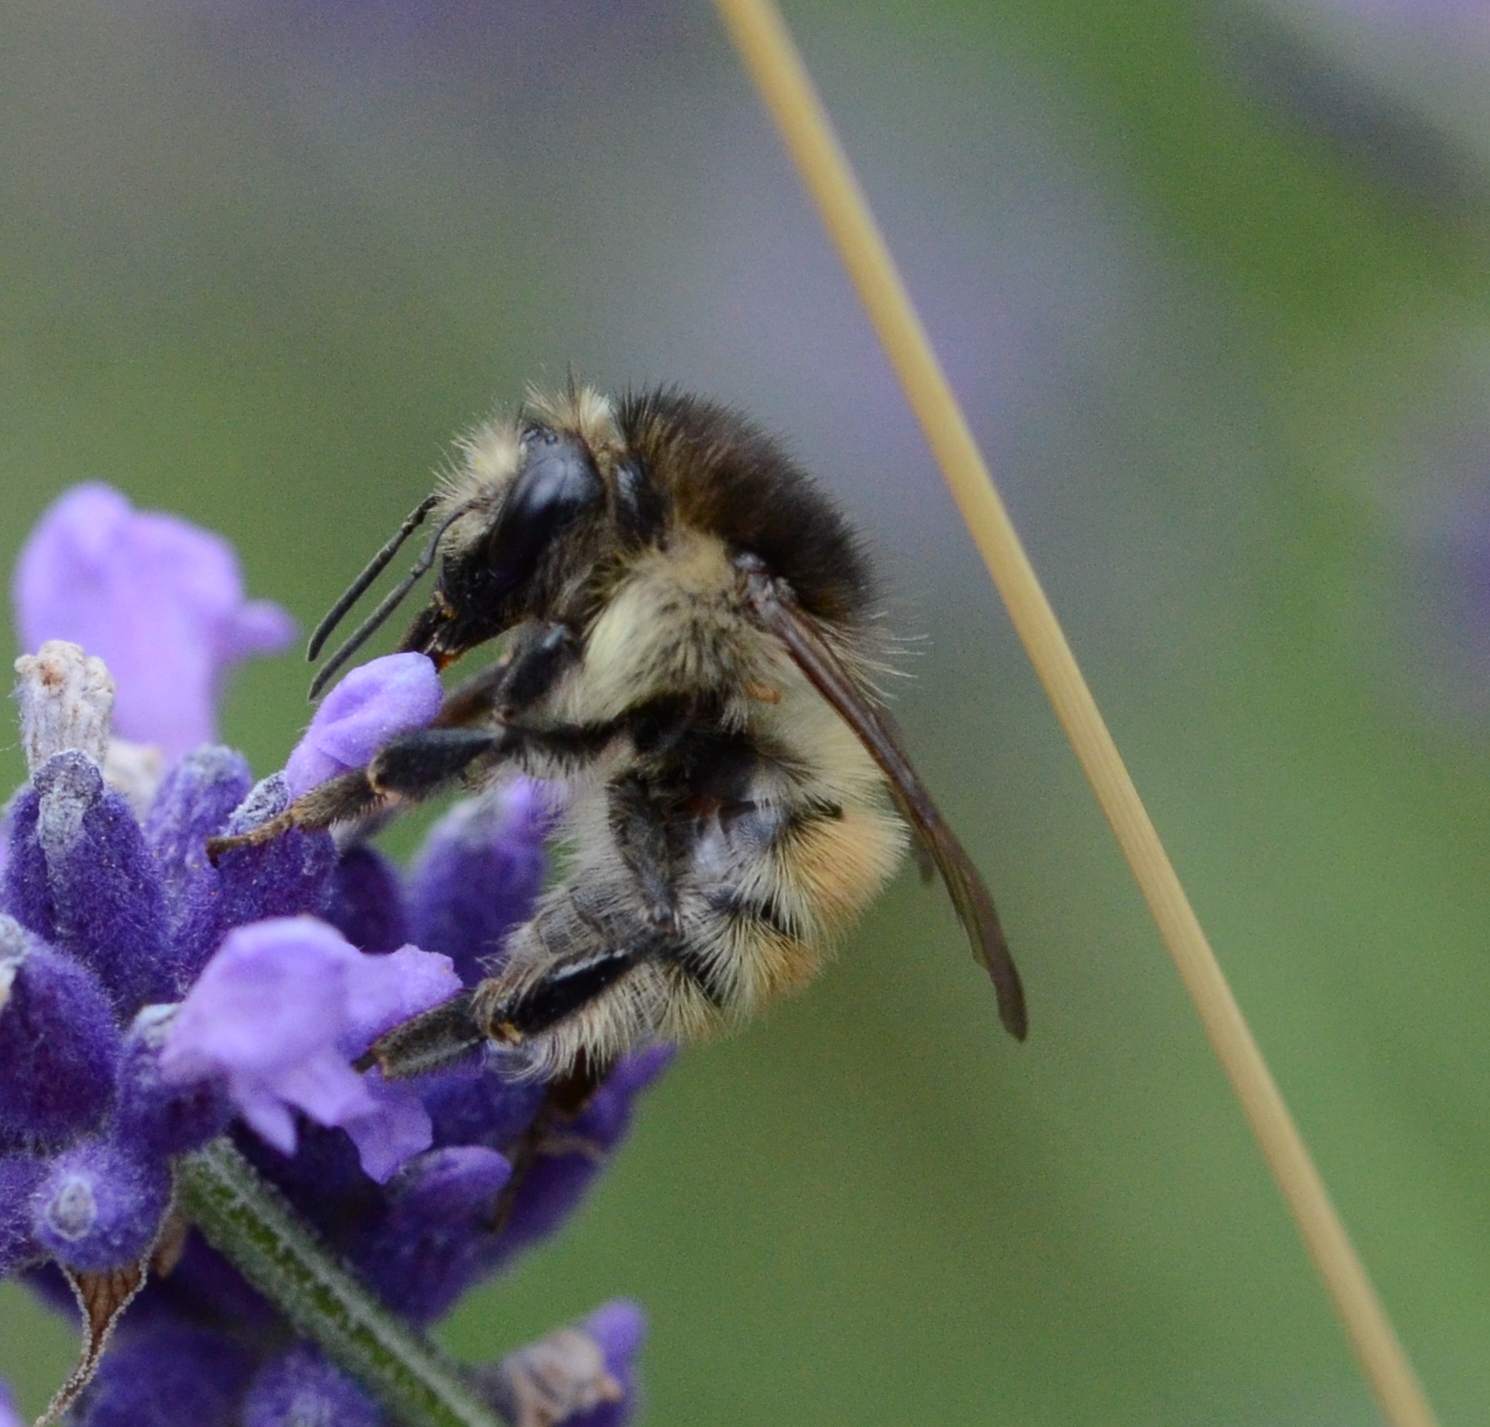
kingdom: Animalia
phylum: Arthropoda
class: Insecta
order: Hymenoptera
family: Apidae
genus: Bombus
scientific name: Bombus humilis
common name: Brown-banded carder-bee
